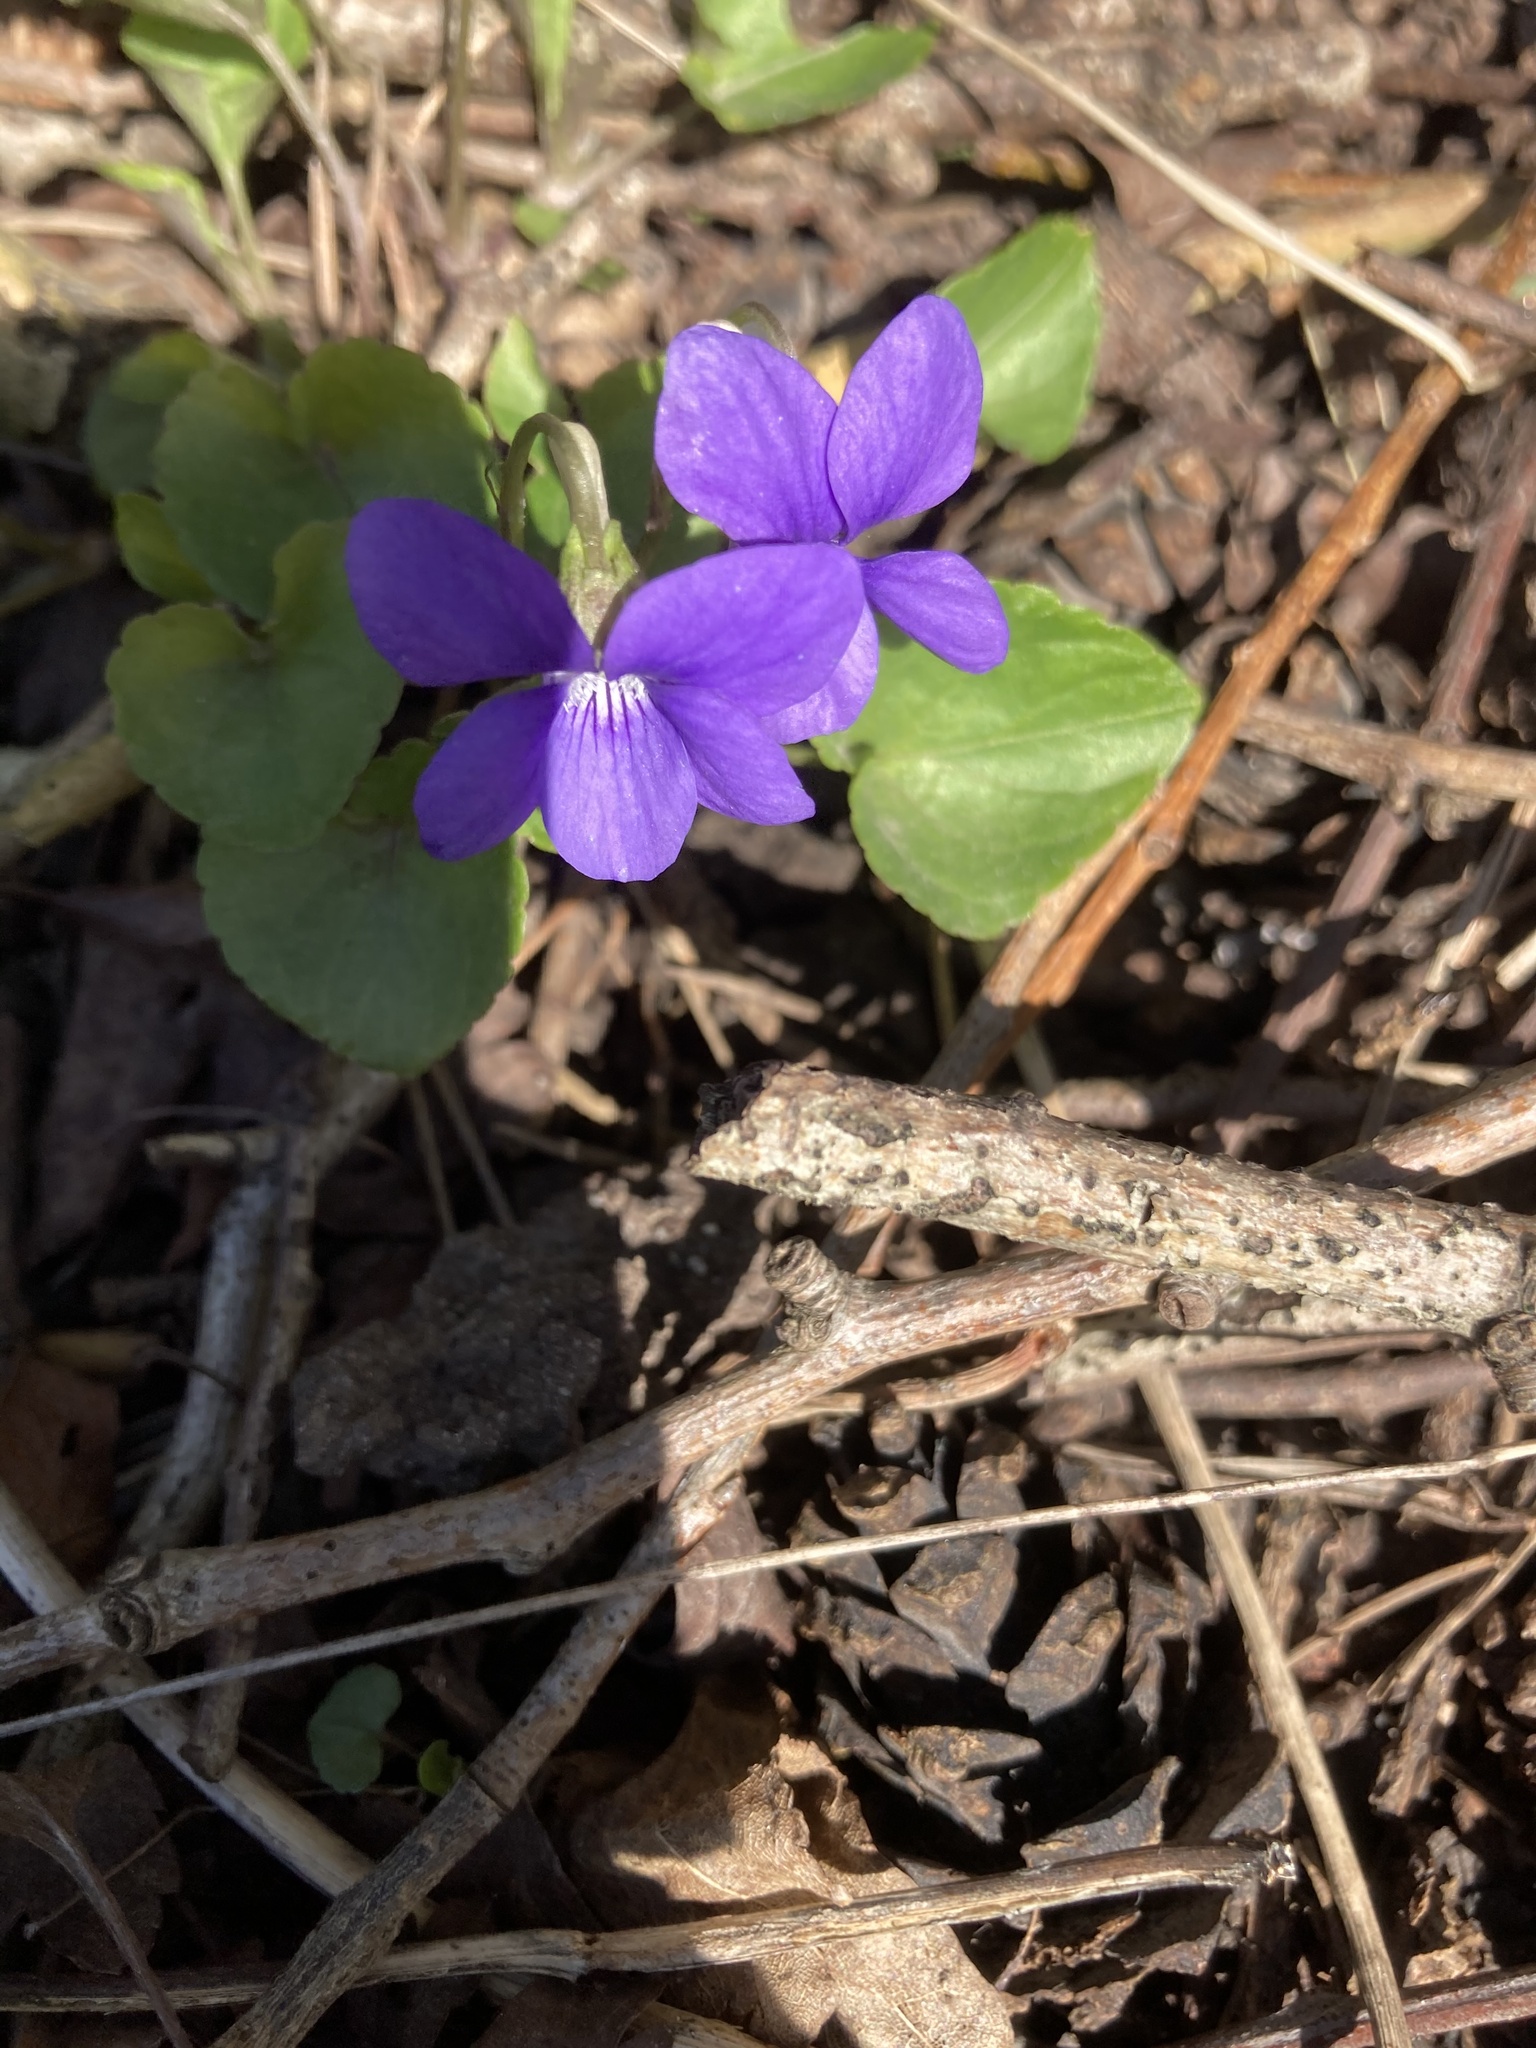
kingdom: Plantae
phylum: Tracheophyta
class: Magnoliopsida
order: Malpighiales
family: Violaceae
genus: Viola
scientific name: Viola riviniana
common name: Common dog-violet
